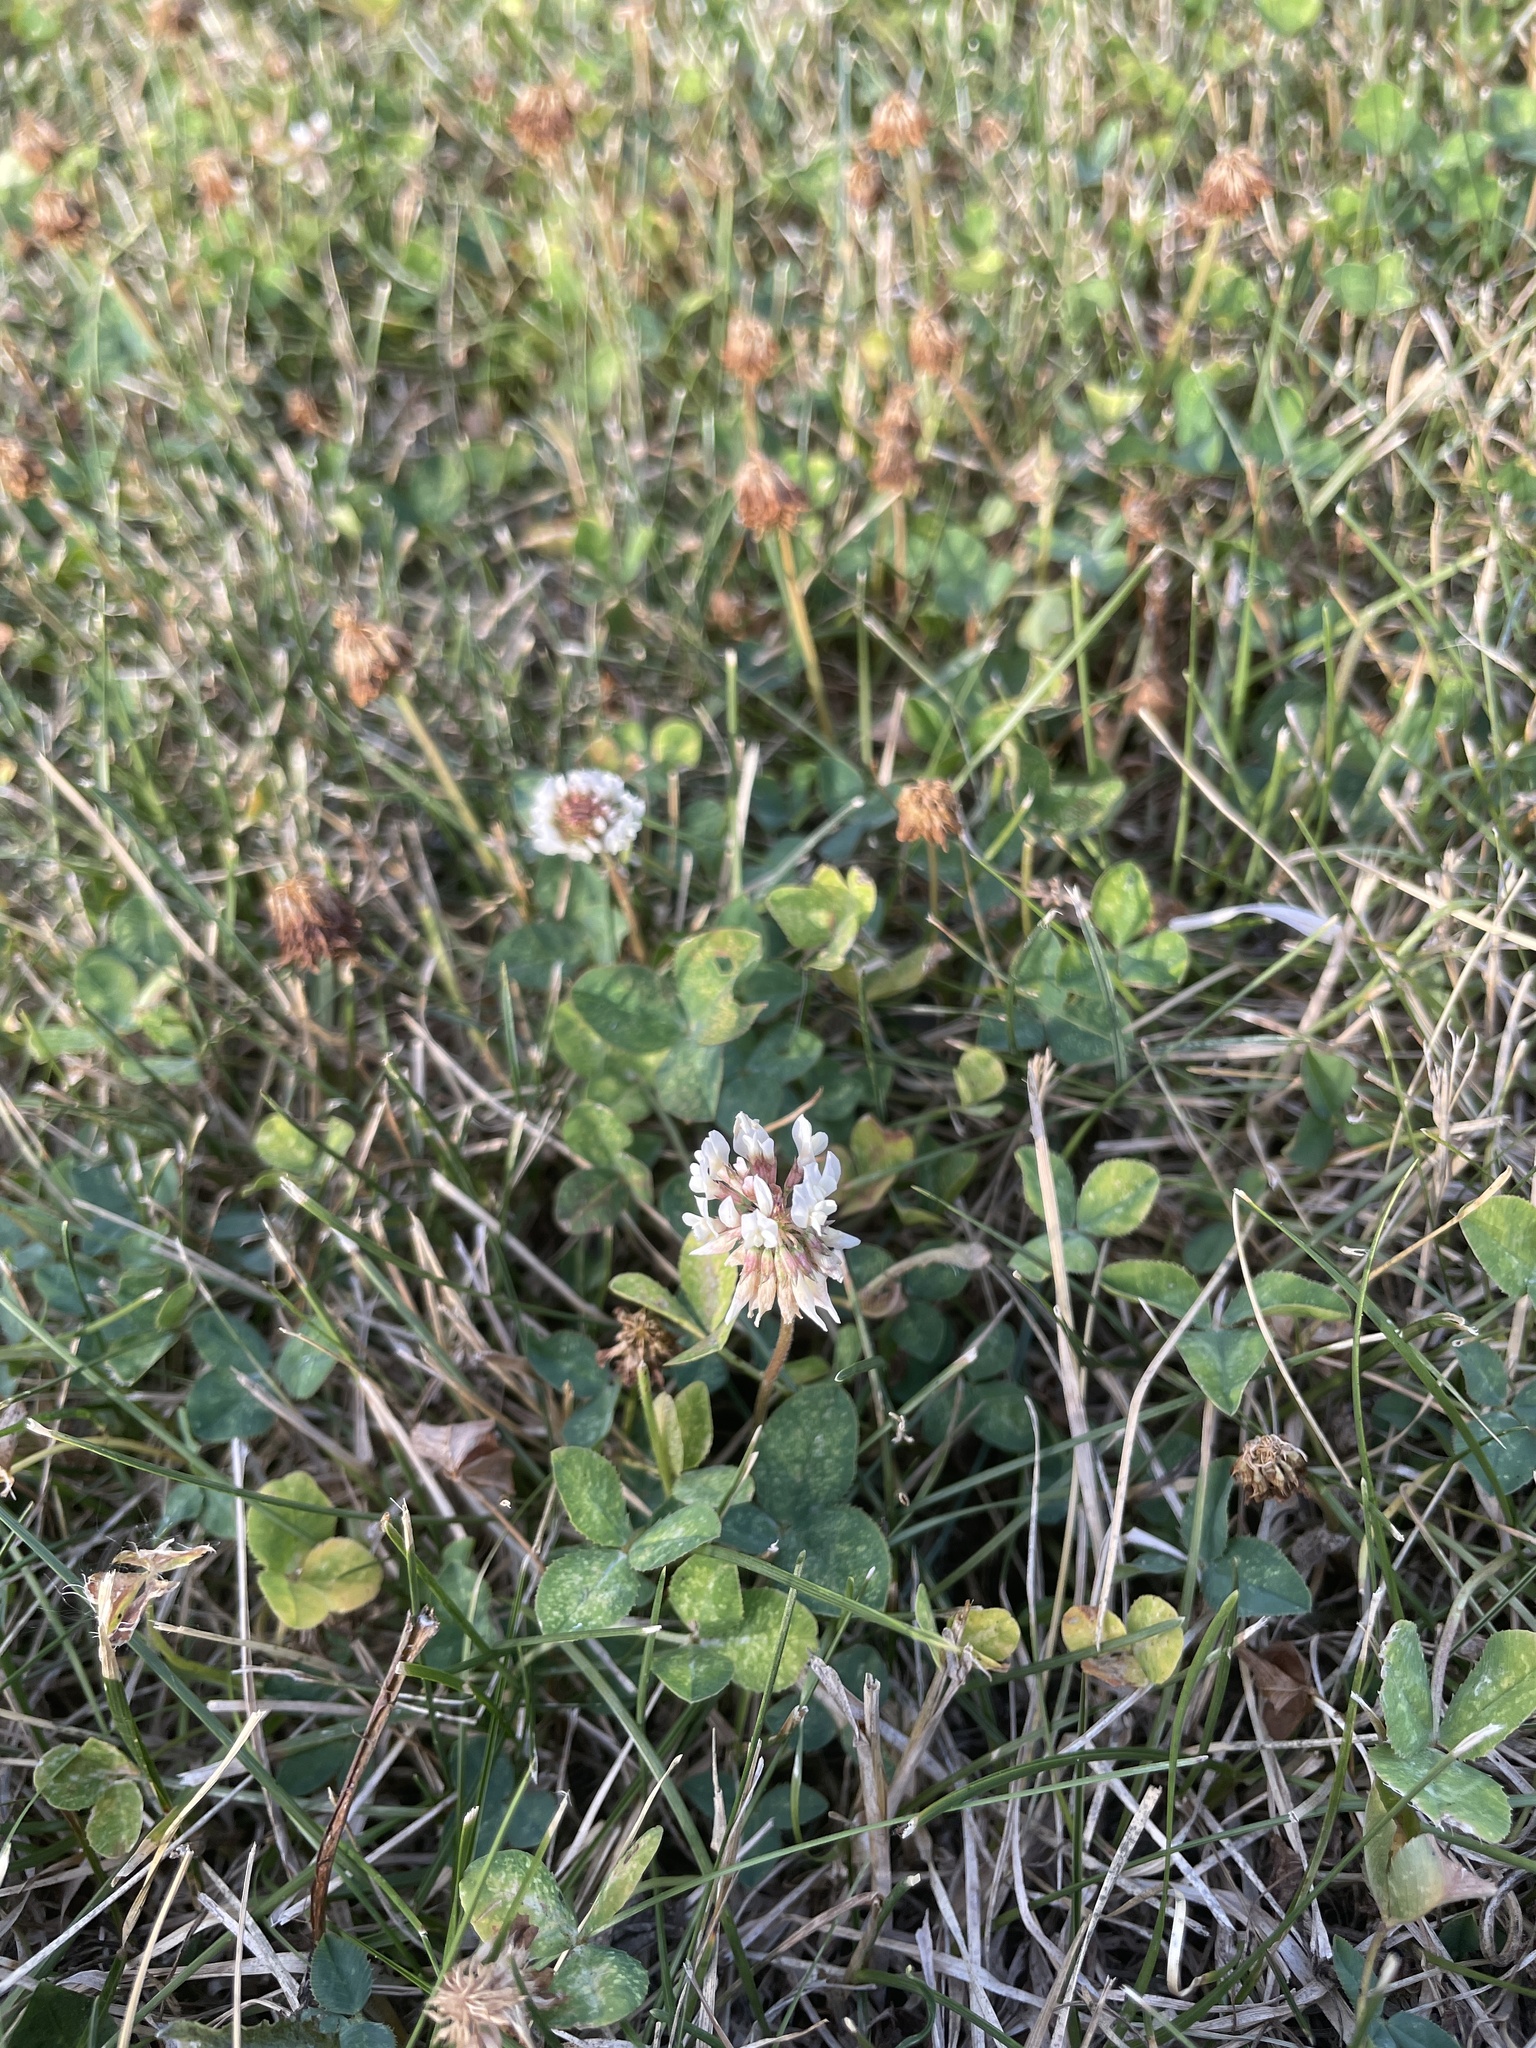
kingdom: Plantae
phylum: Tracheophyta
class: Magnoliopsida
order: Fabales
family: Fabaceae
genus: Trifolium
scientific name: Trifolium repens
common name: White clover
